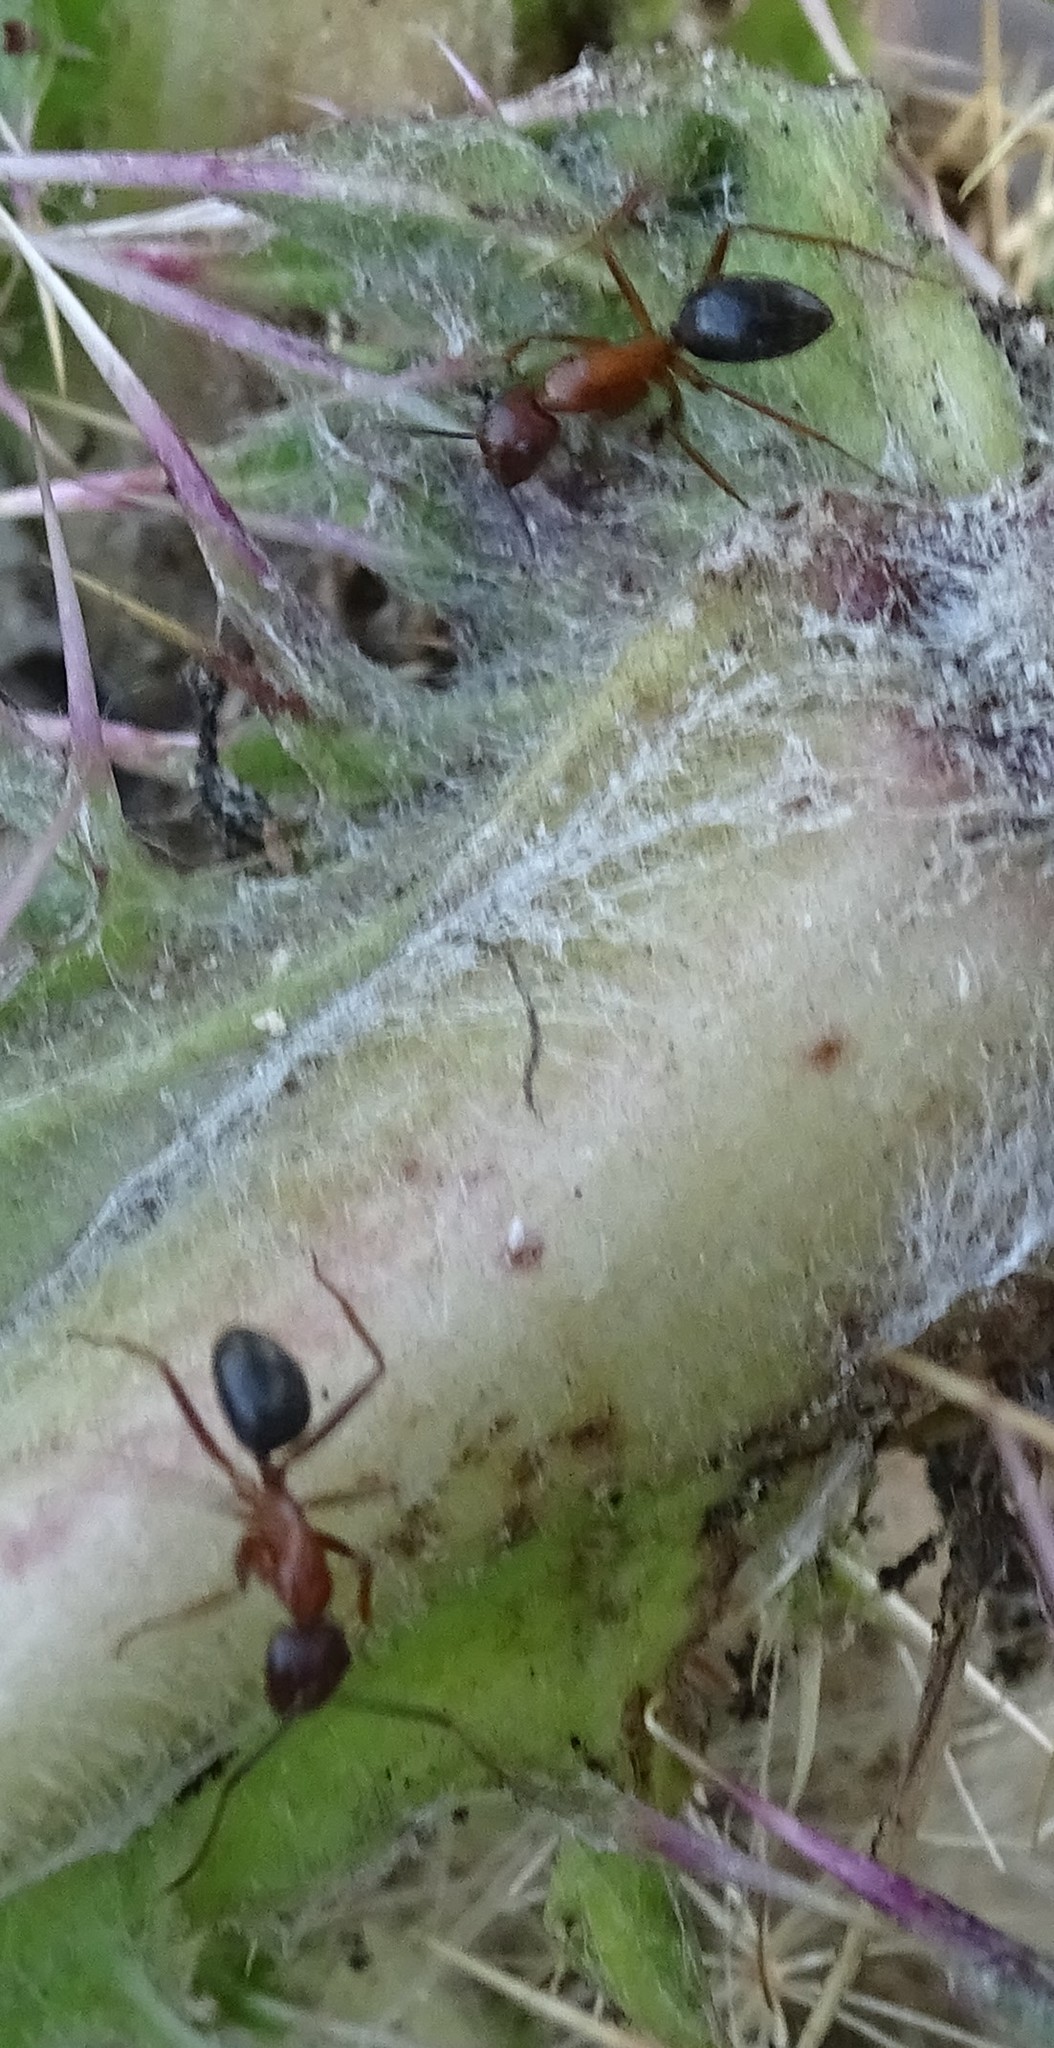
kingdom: Animalia
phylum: Arthropoda
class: Insecta
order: Hymenoptera
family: Formicidae
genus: Camponotus
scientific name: Camponotus floridanus
